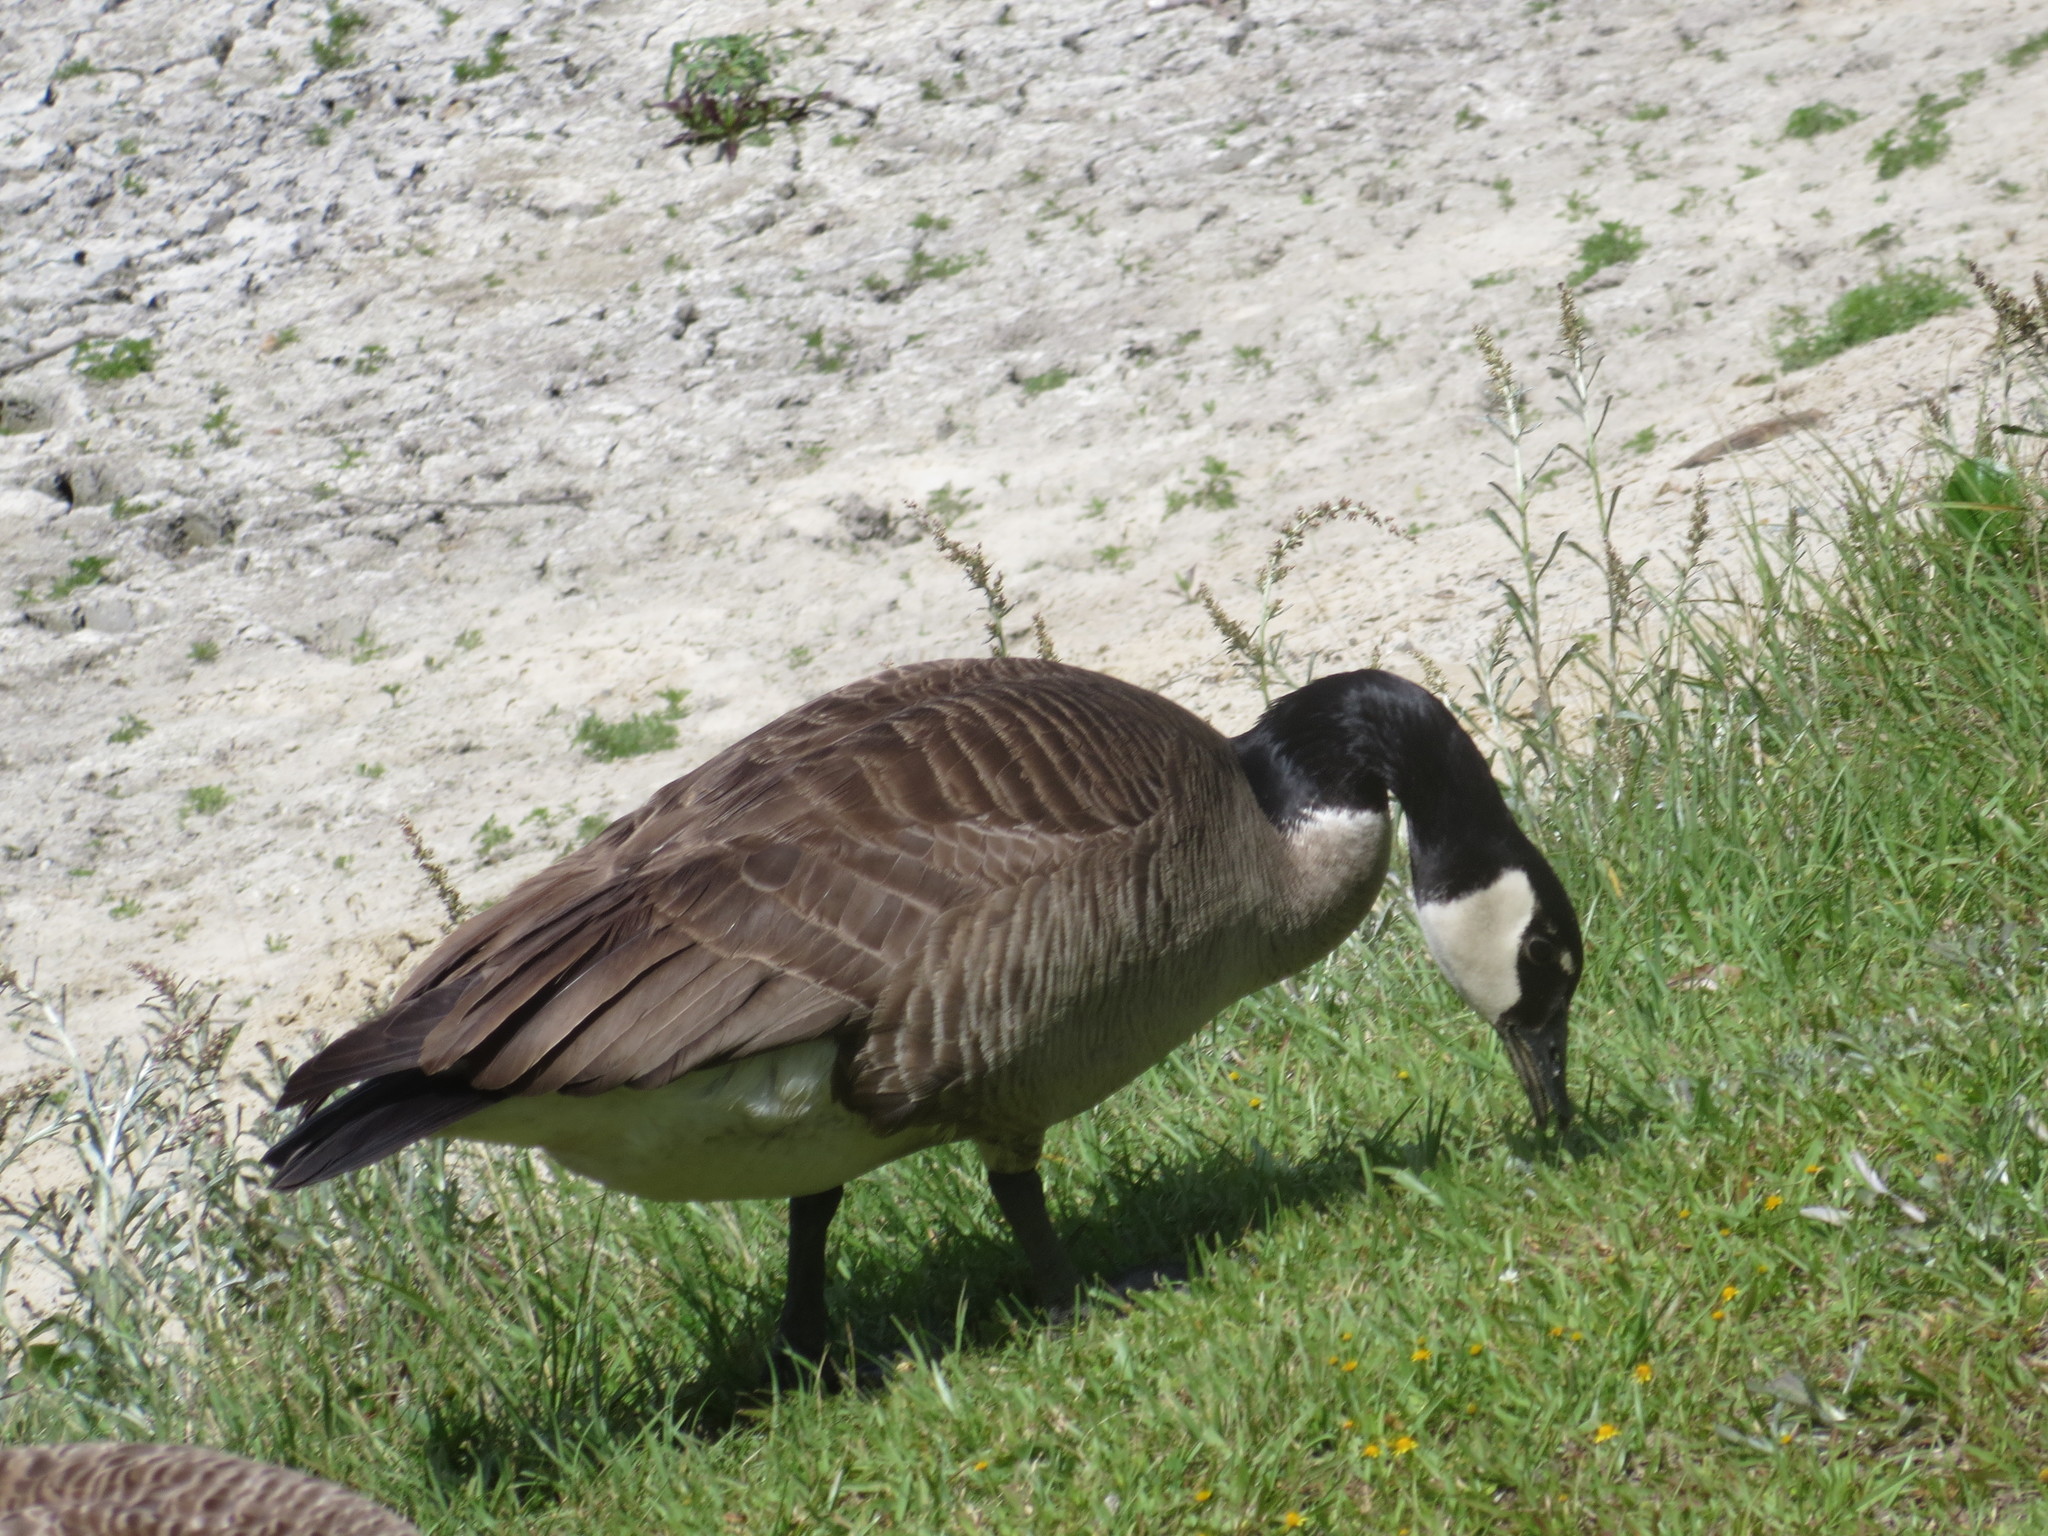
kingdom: Animalia
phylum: Chordata
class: Aves
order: Anseriformes
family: Anatidae
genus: Branta
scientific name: Branta canadensis
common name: Canada goose
